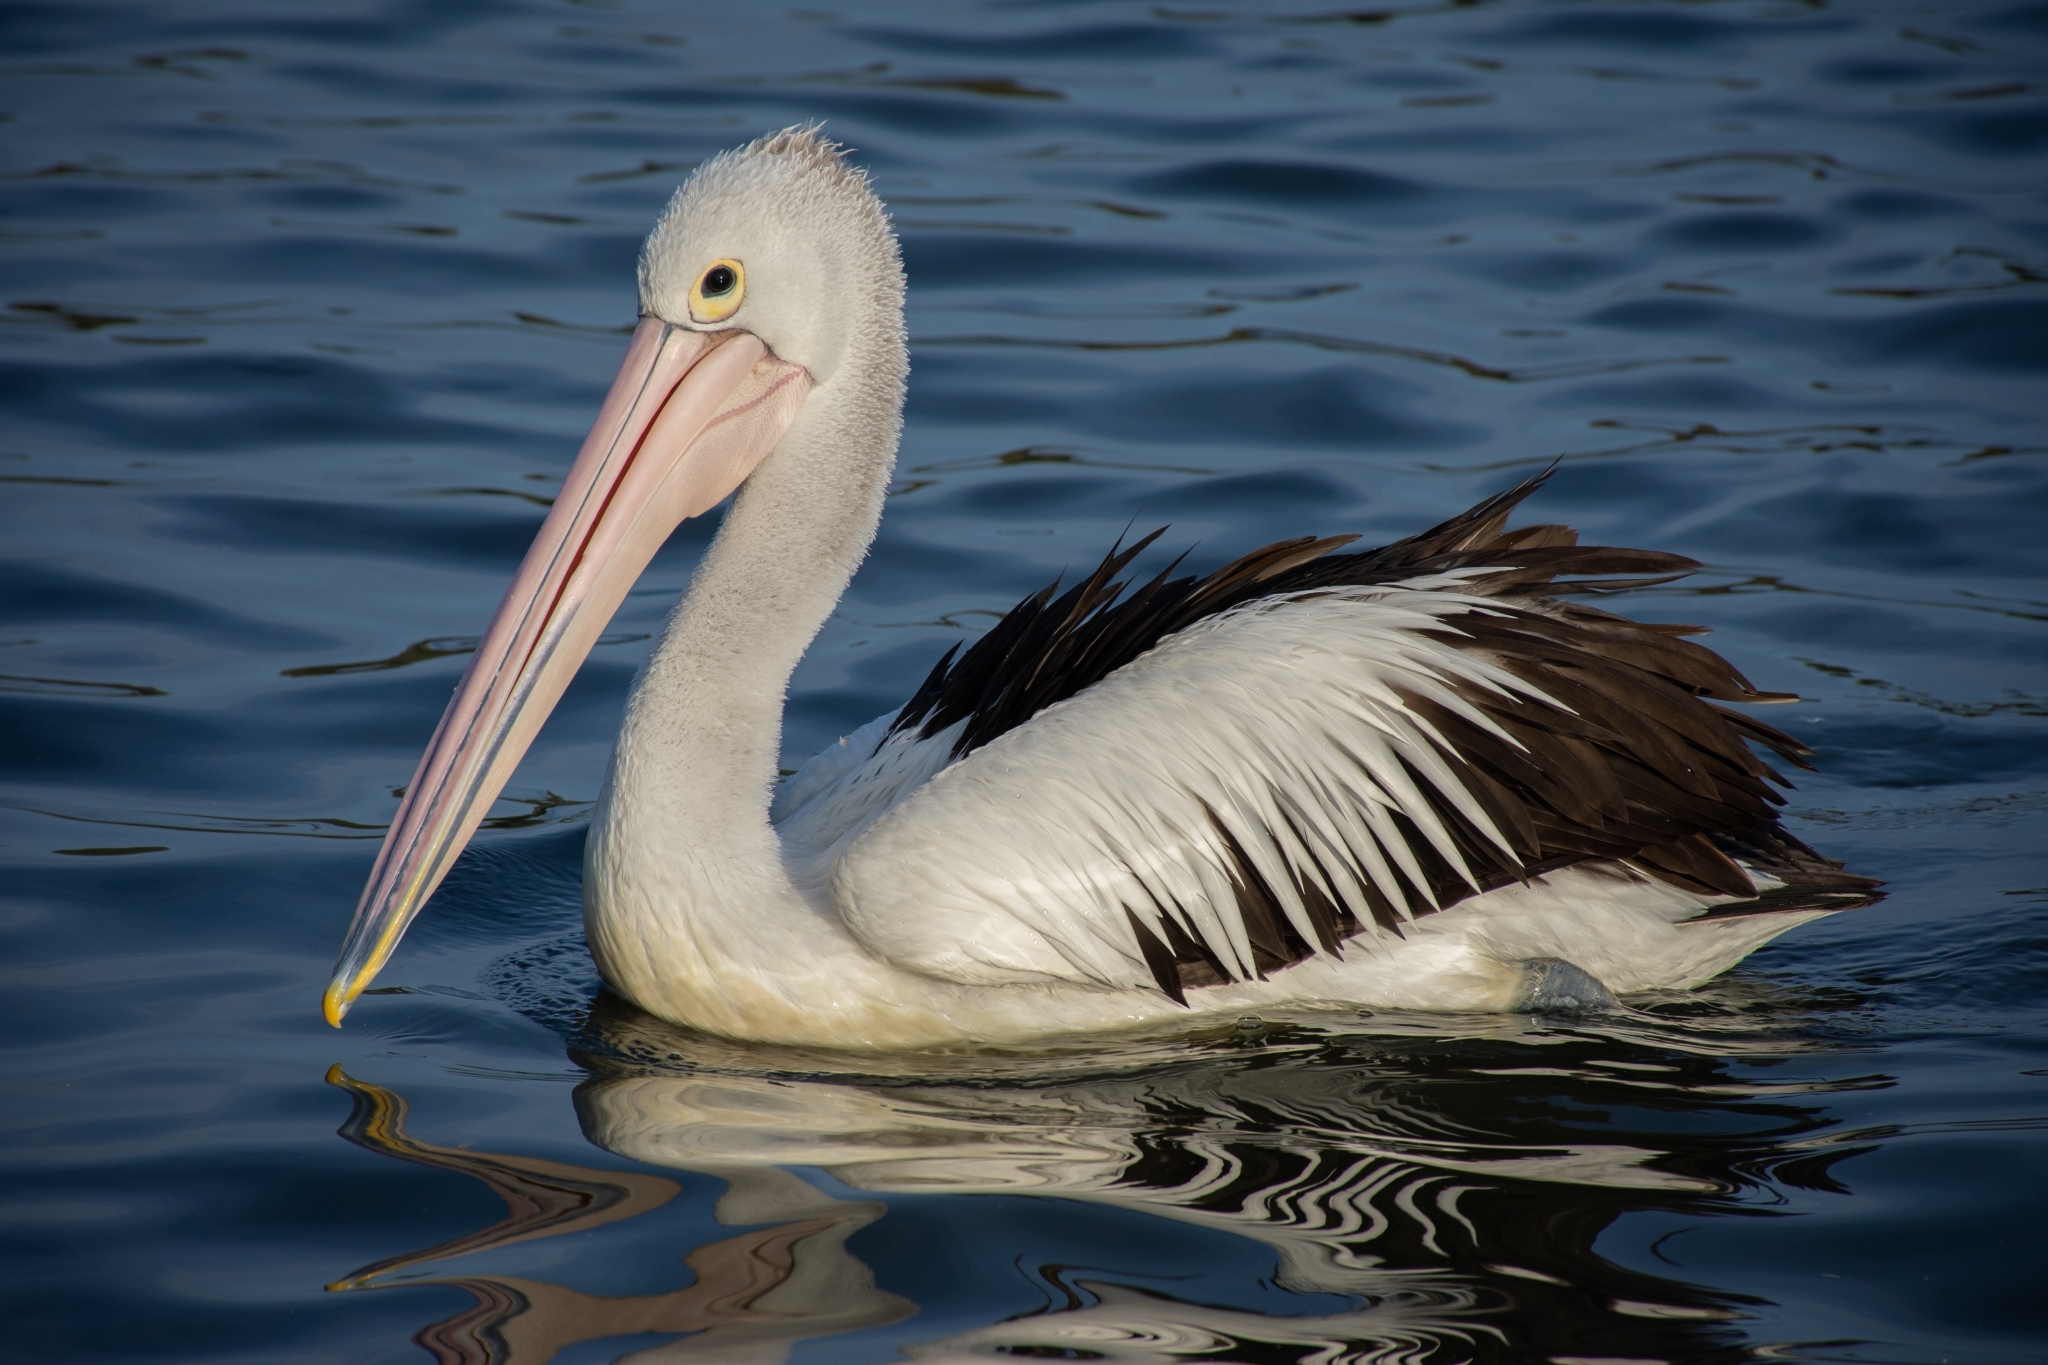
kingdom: Animalia
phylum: Chordata
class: Aves
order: Pelecaniformes
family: Pelecanidae
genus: Pelecanus
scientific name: Pelecanus conspicillatus
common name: Australian pelican
